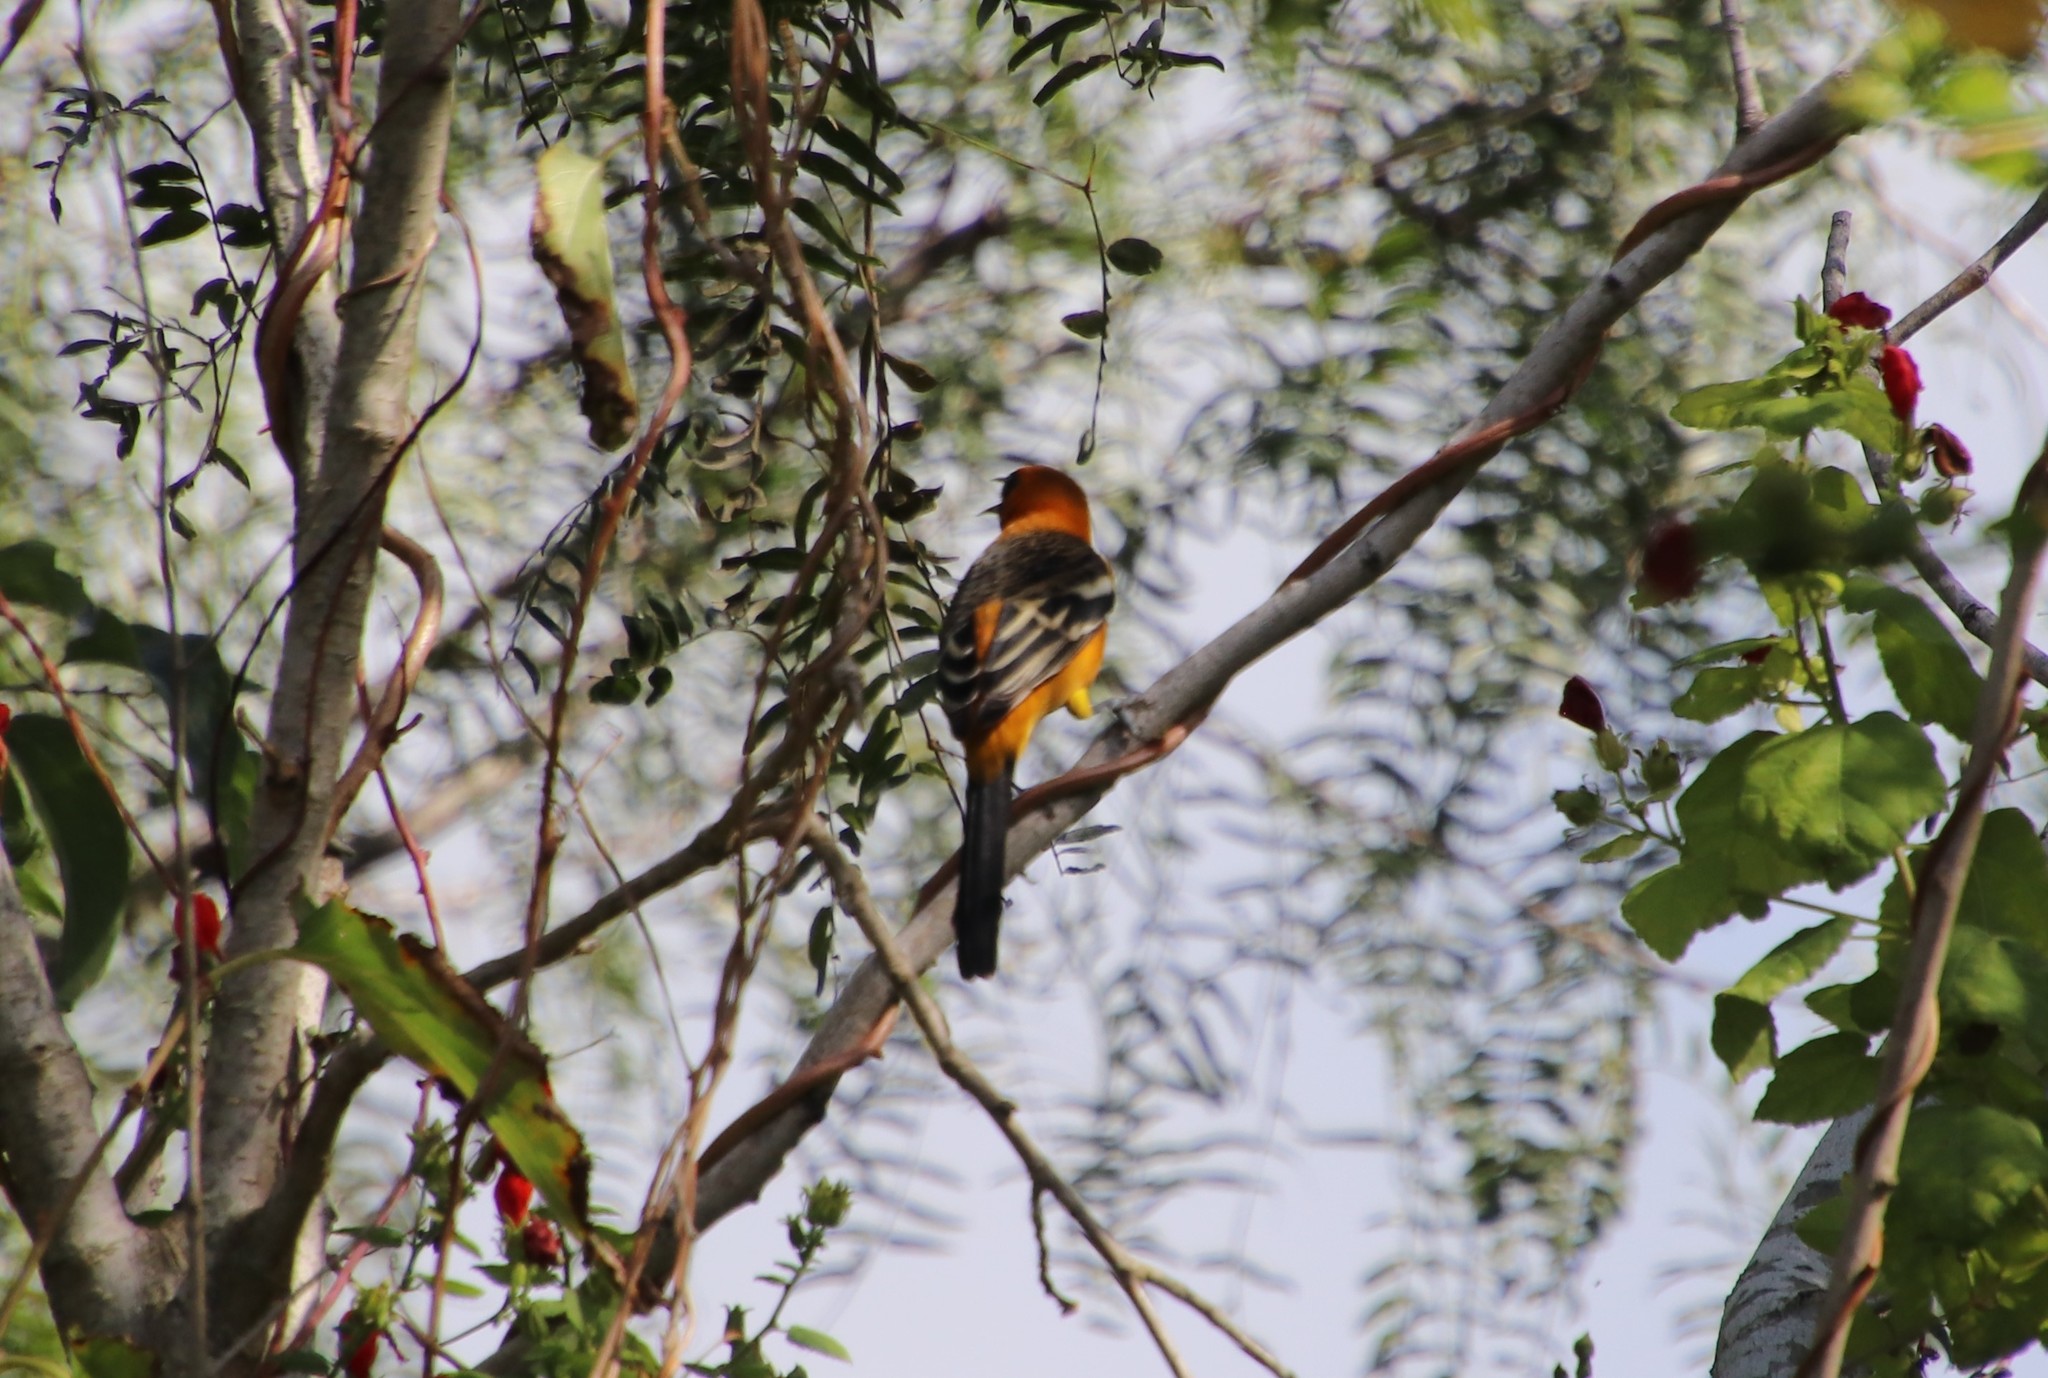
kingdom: Animalia
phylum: Chordata
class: Aves
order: Passeriformes
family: Icteridae
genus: Icterus
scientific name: Icterus cucullatus
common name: Hooded oriole
